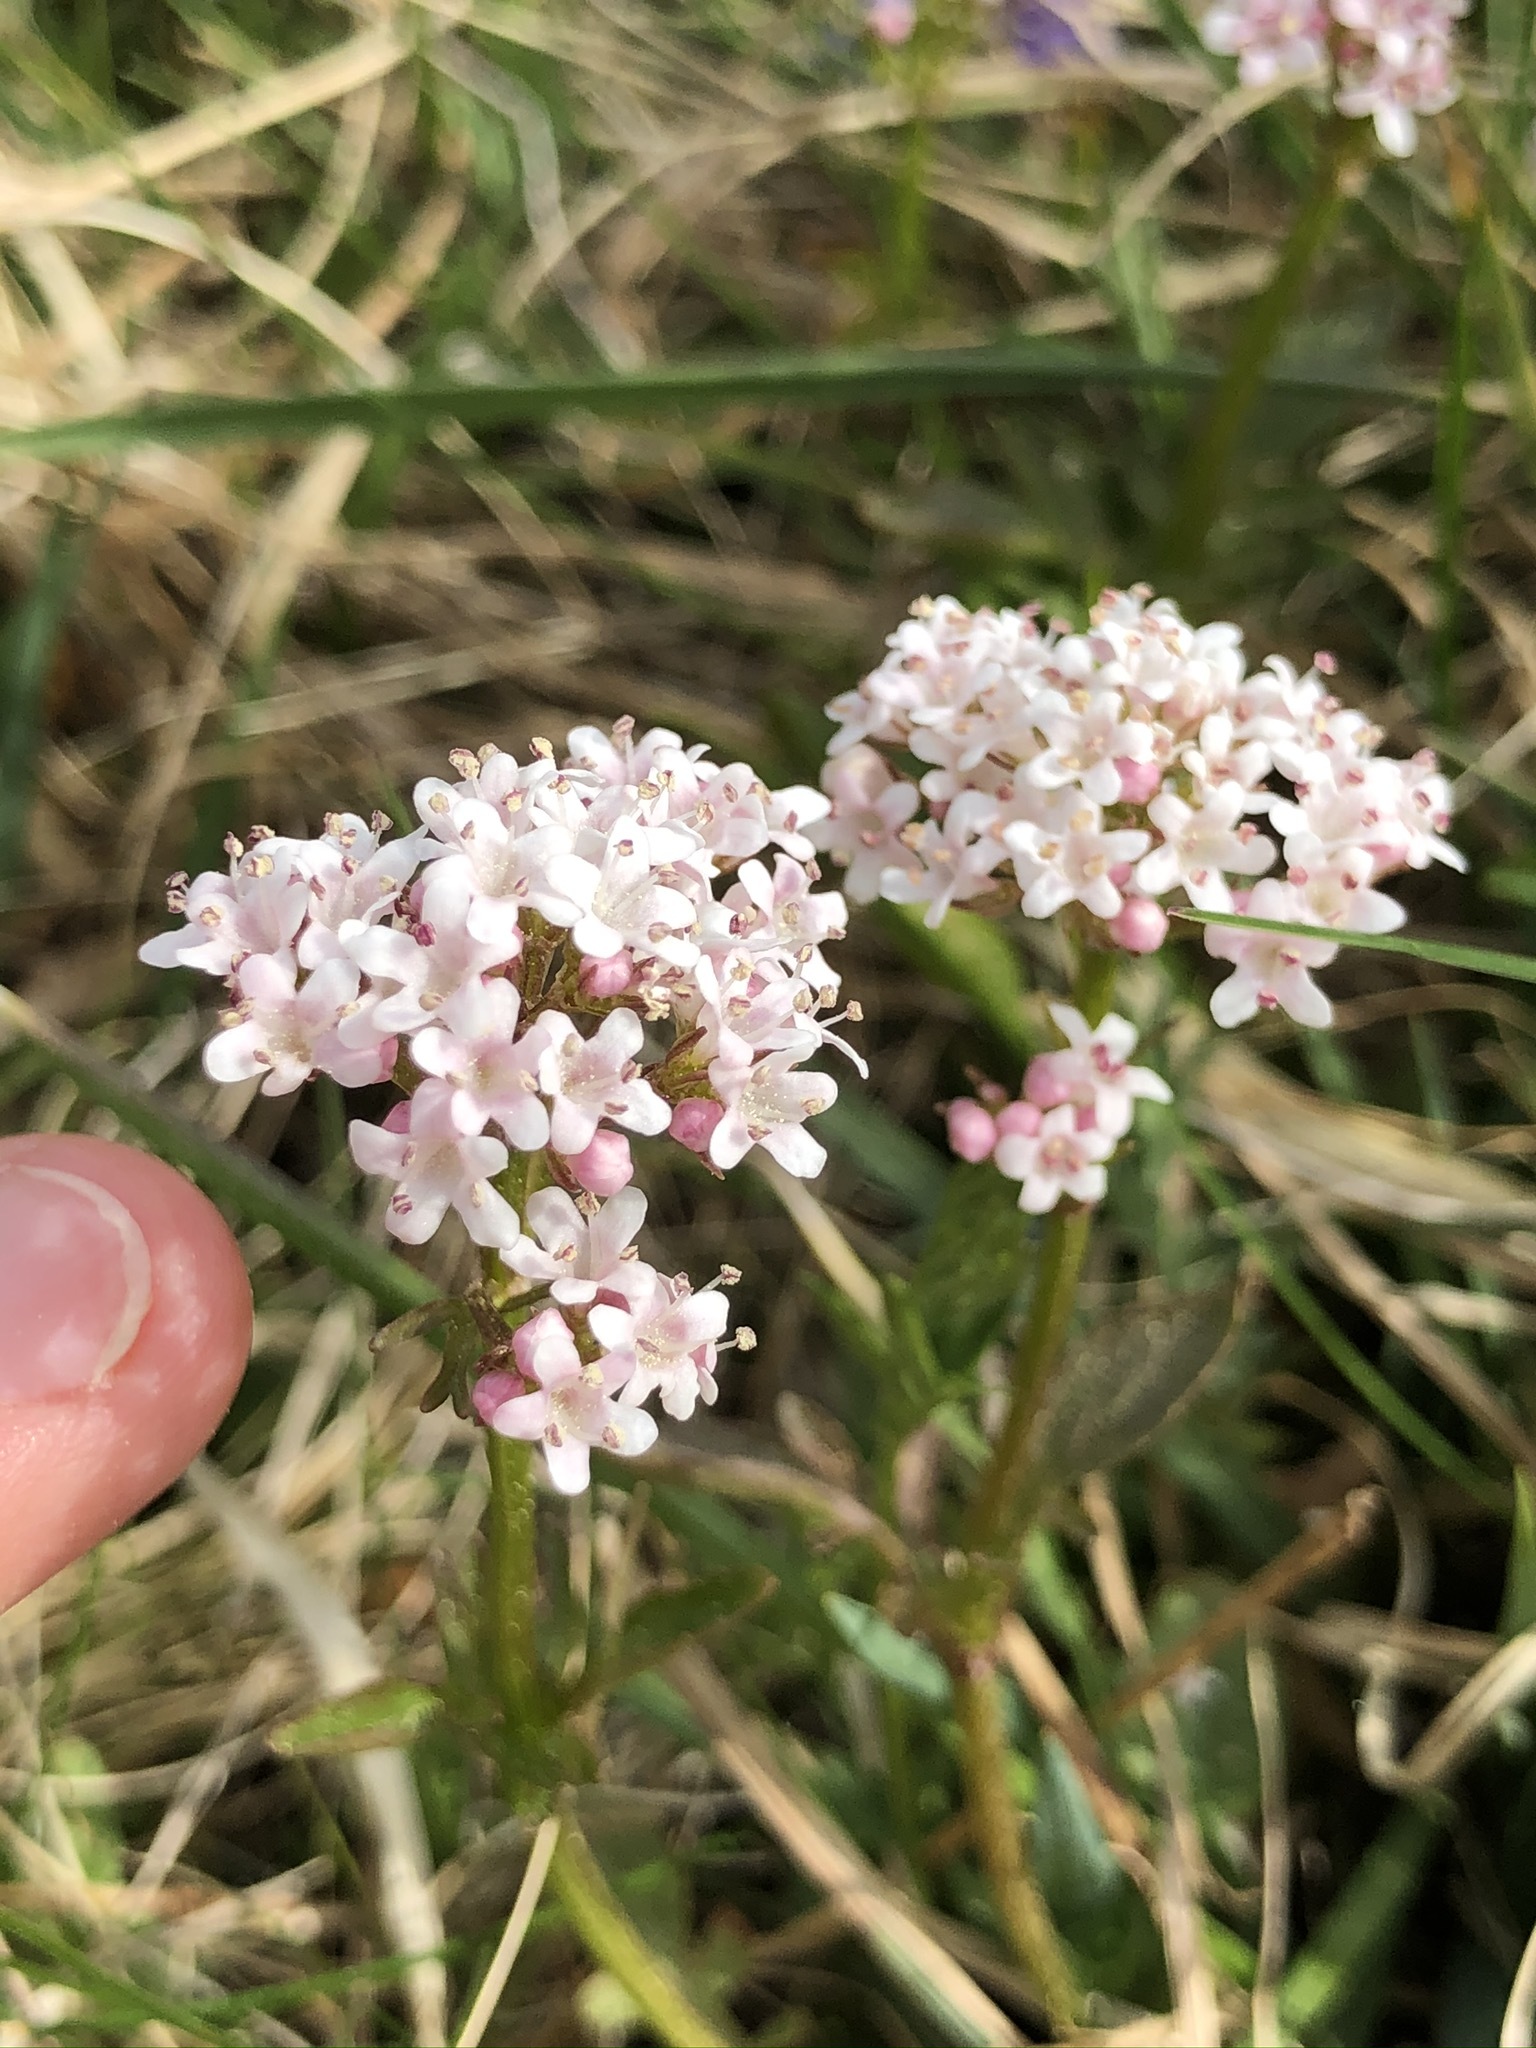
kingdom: Plantae
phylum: Tracheophyta
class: Magnoliopsida
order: Dipsacales
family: Caprifoliaceae
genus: Valeriana
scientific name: Valeriana dioica
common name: Marsh valerian
